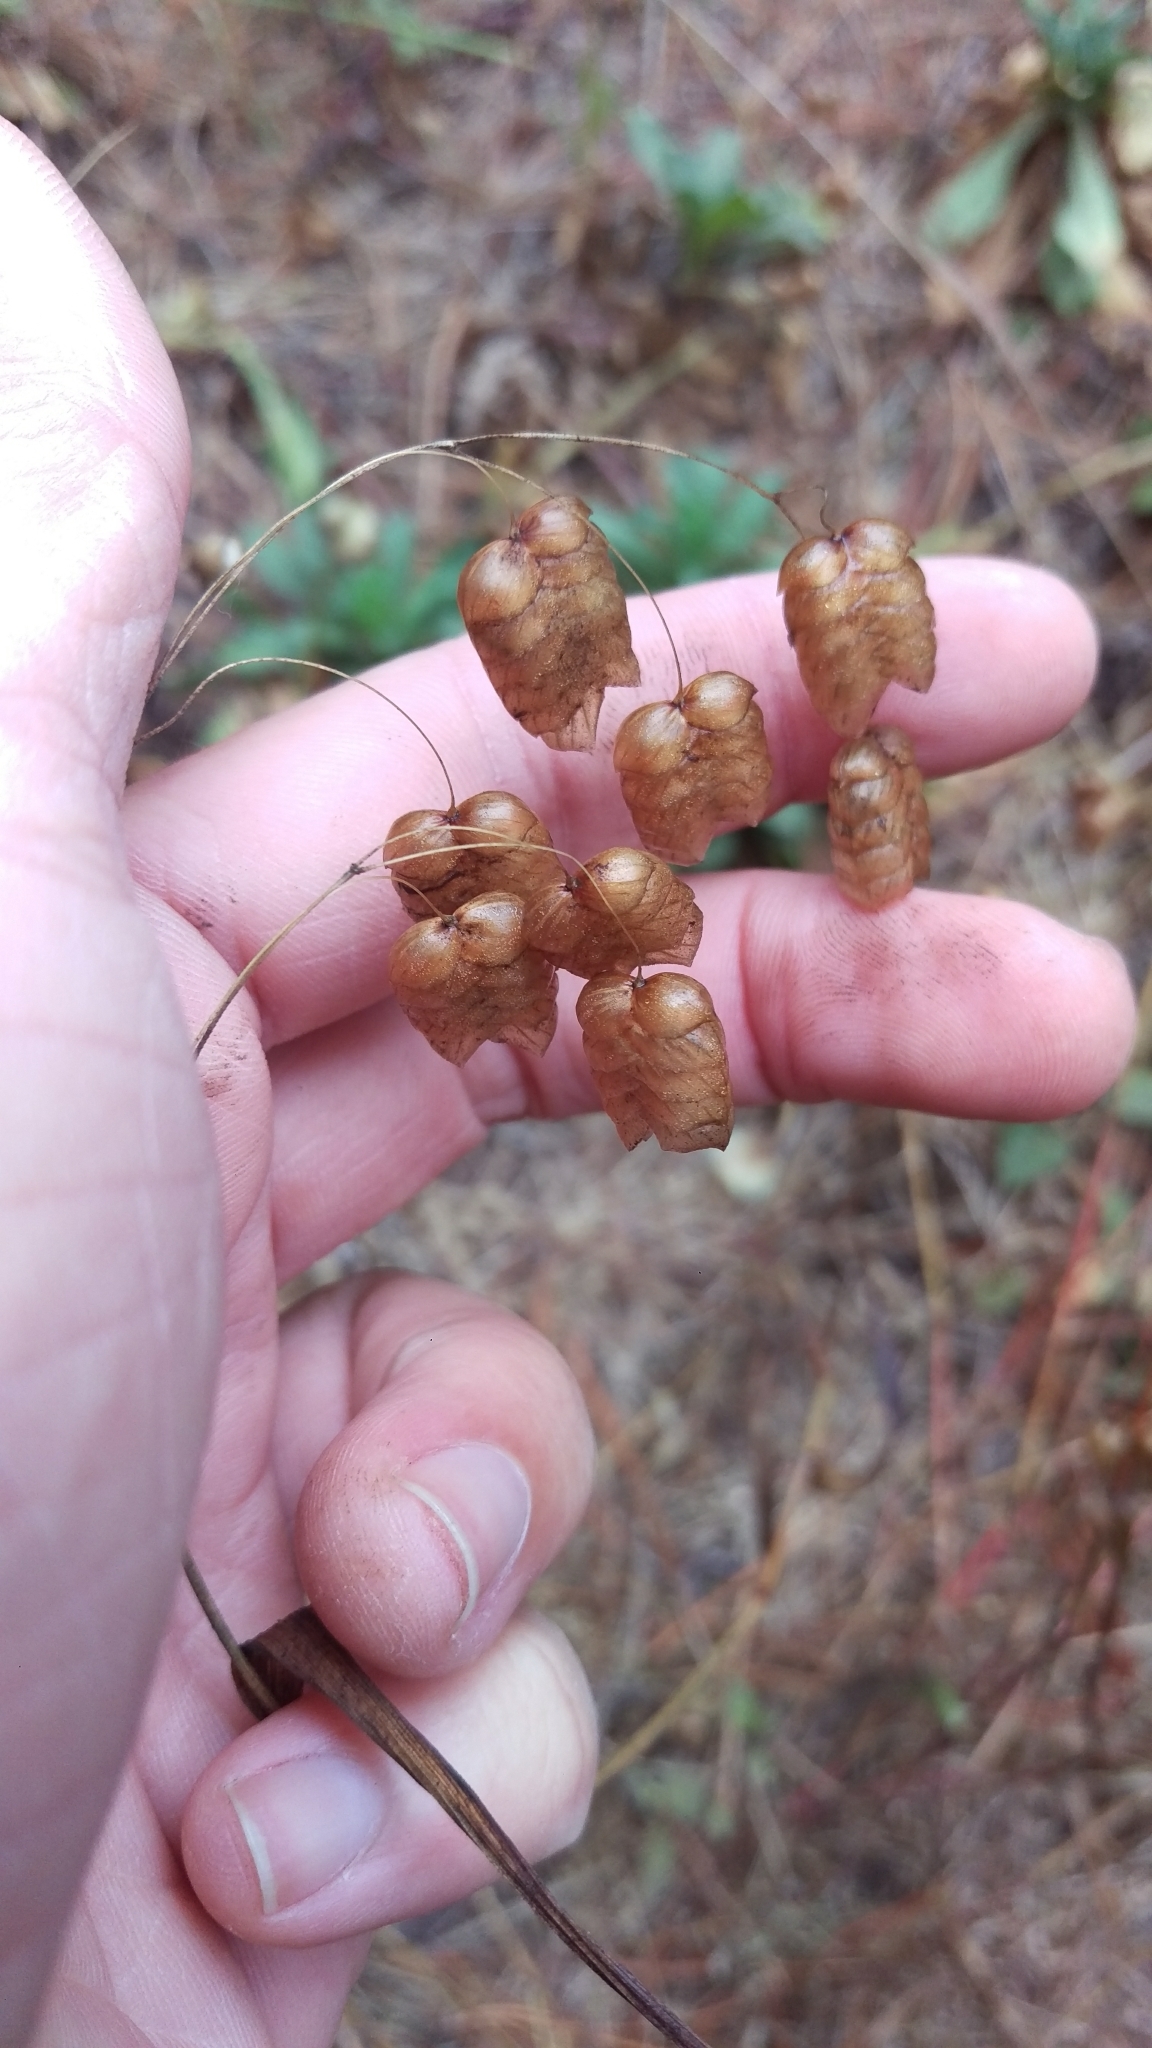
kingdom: Plantae
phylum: Tracheophyta
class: Liliopsida
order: Poales
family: Poaceae
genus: Briza
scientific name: Briza maxima
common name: Big quakinggrass
